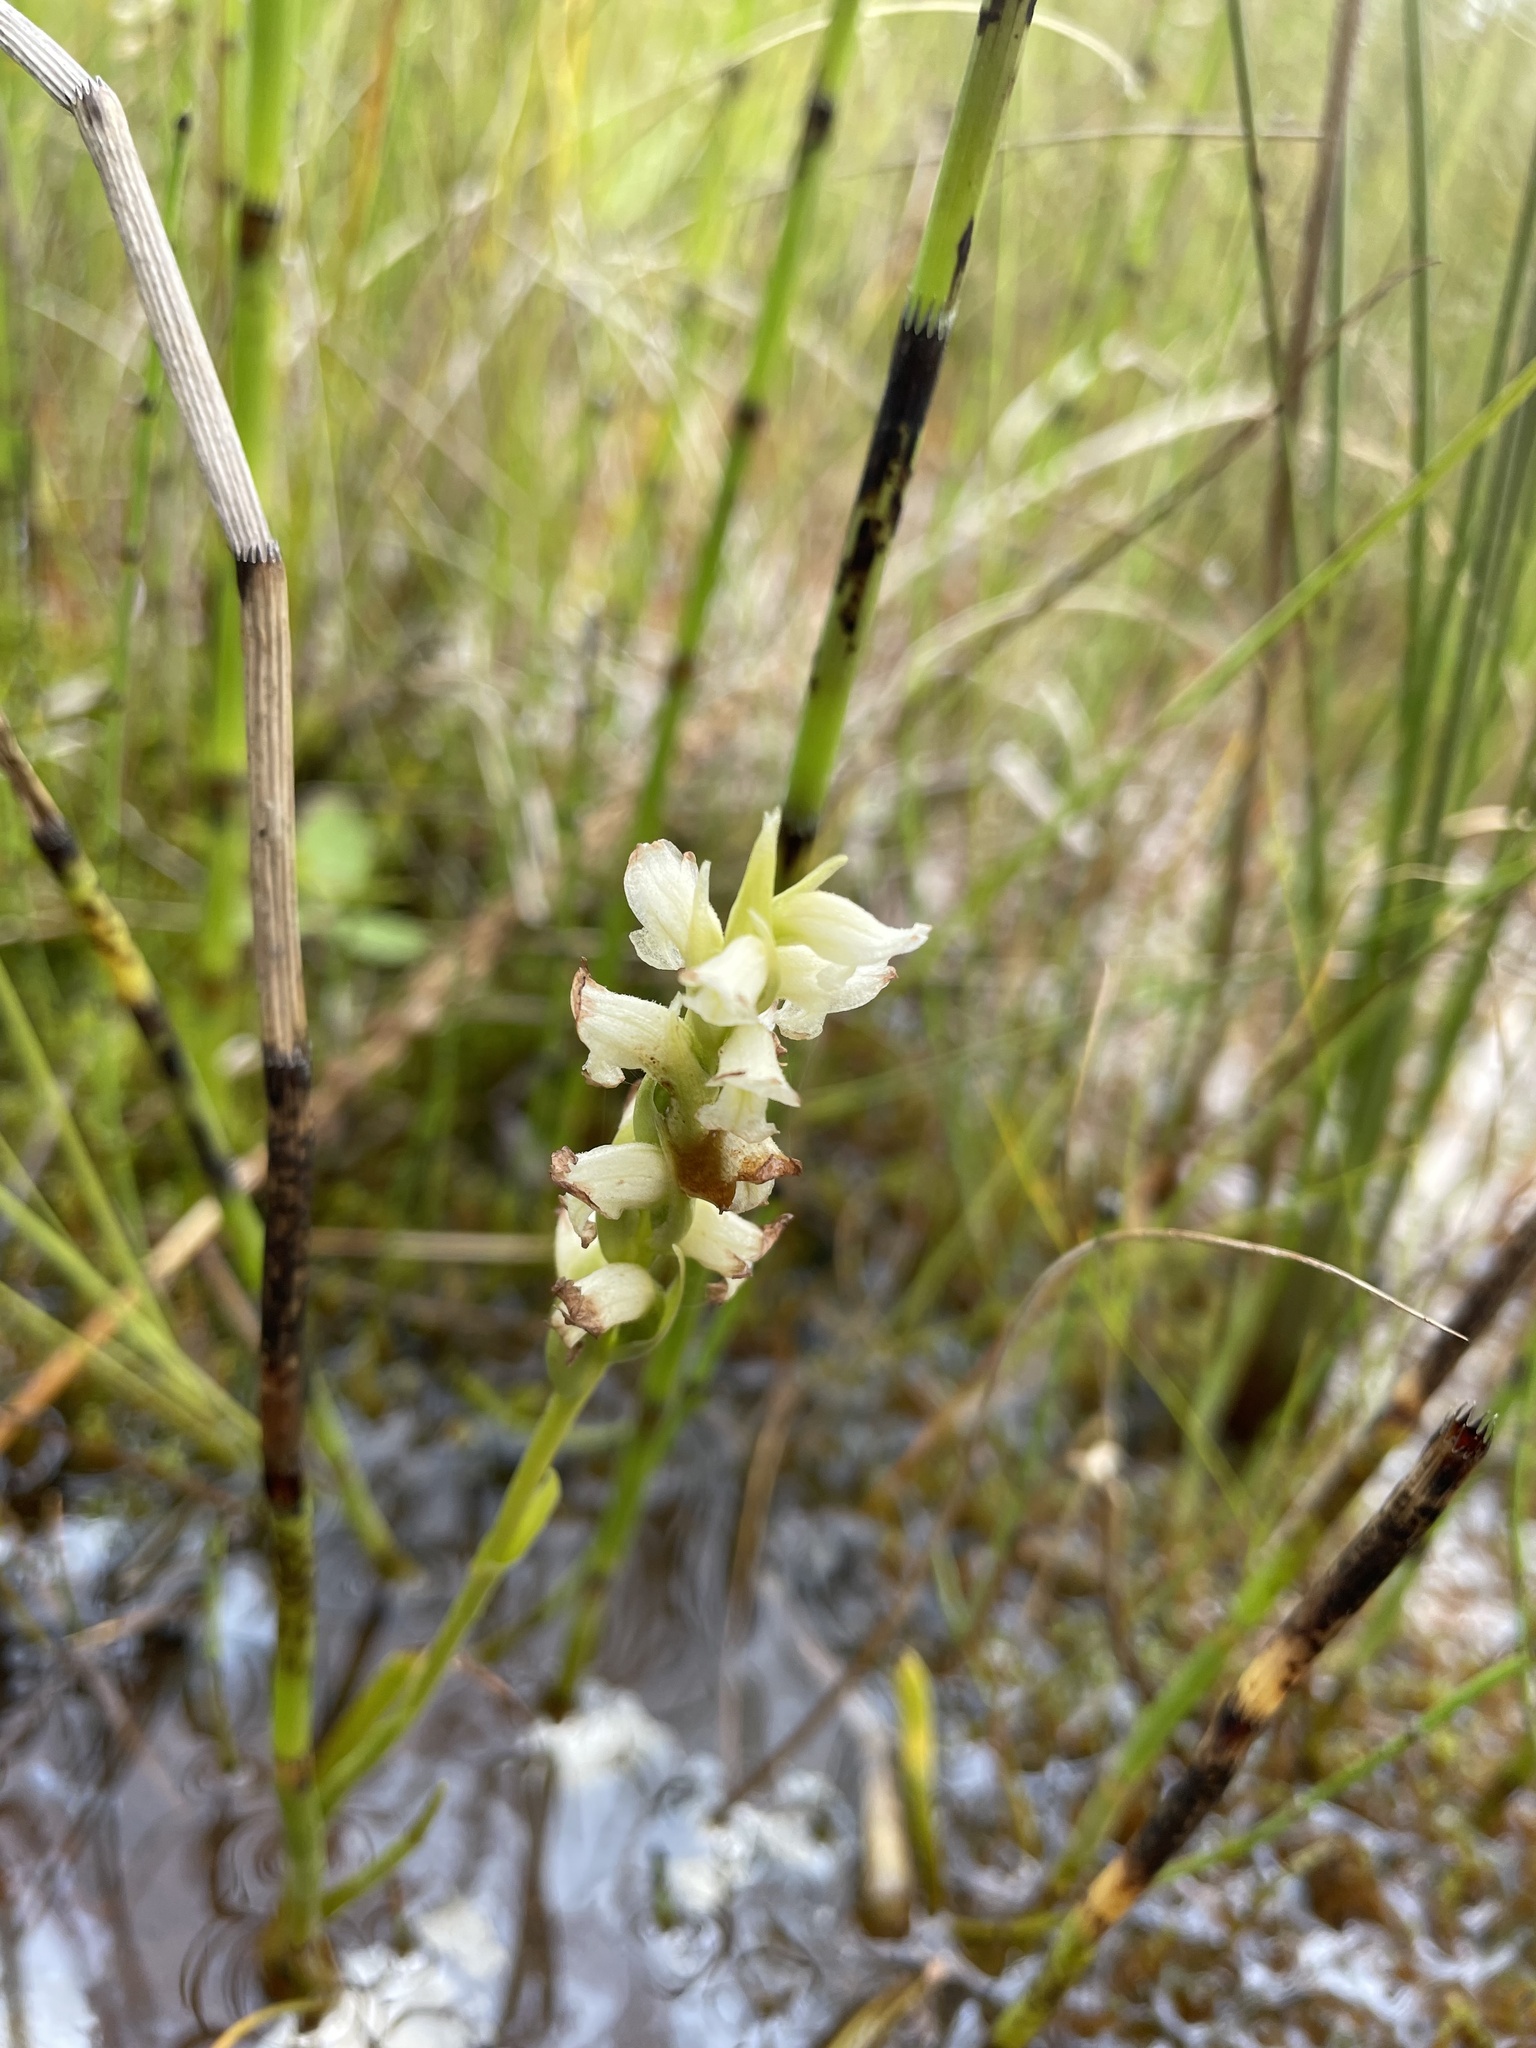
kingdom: Plantae
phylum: Tracheophyta
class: Liliopsida
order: Asparagales
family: Orchidaceae
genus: Spiranthes
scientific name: Spiranthes romanzoffiana
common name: Irish lady's-tresses
